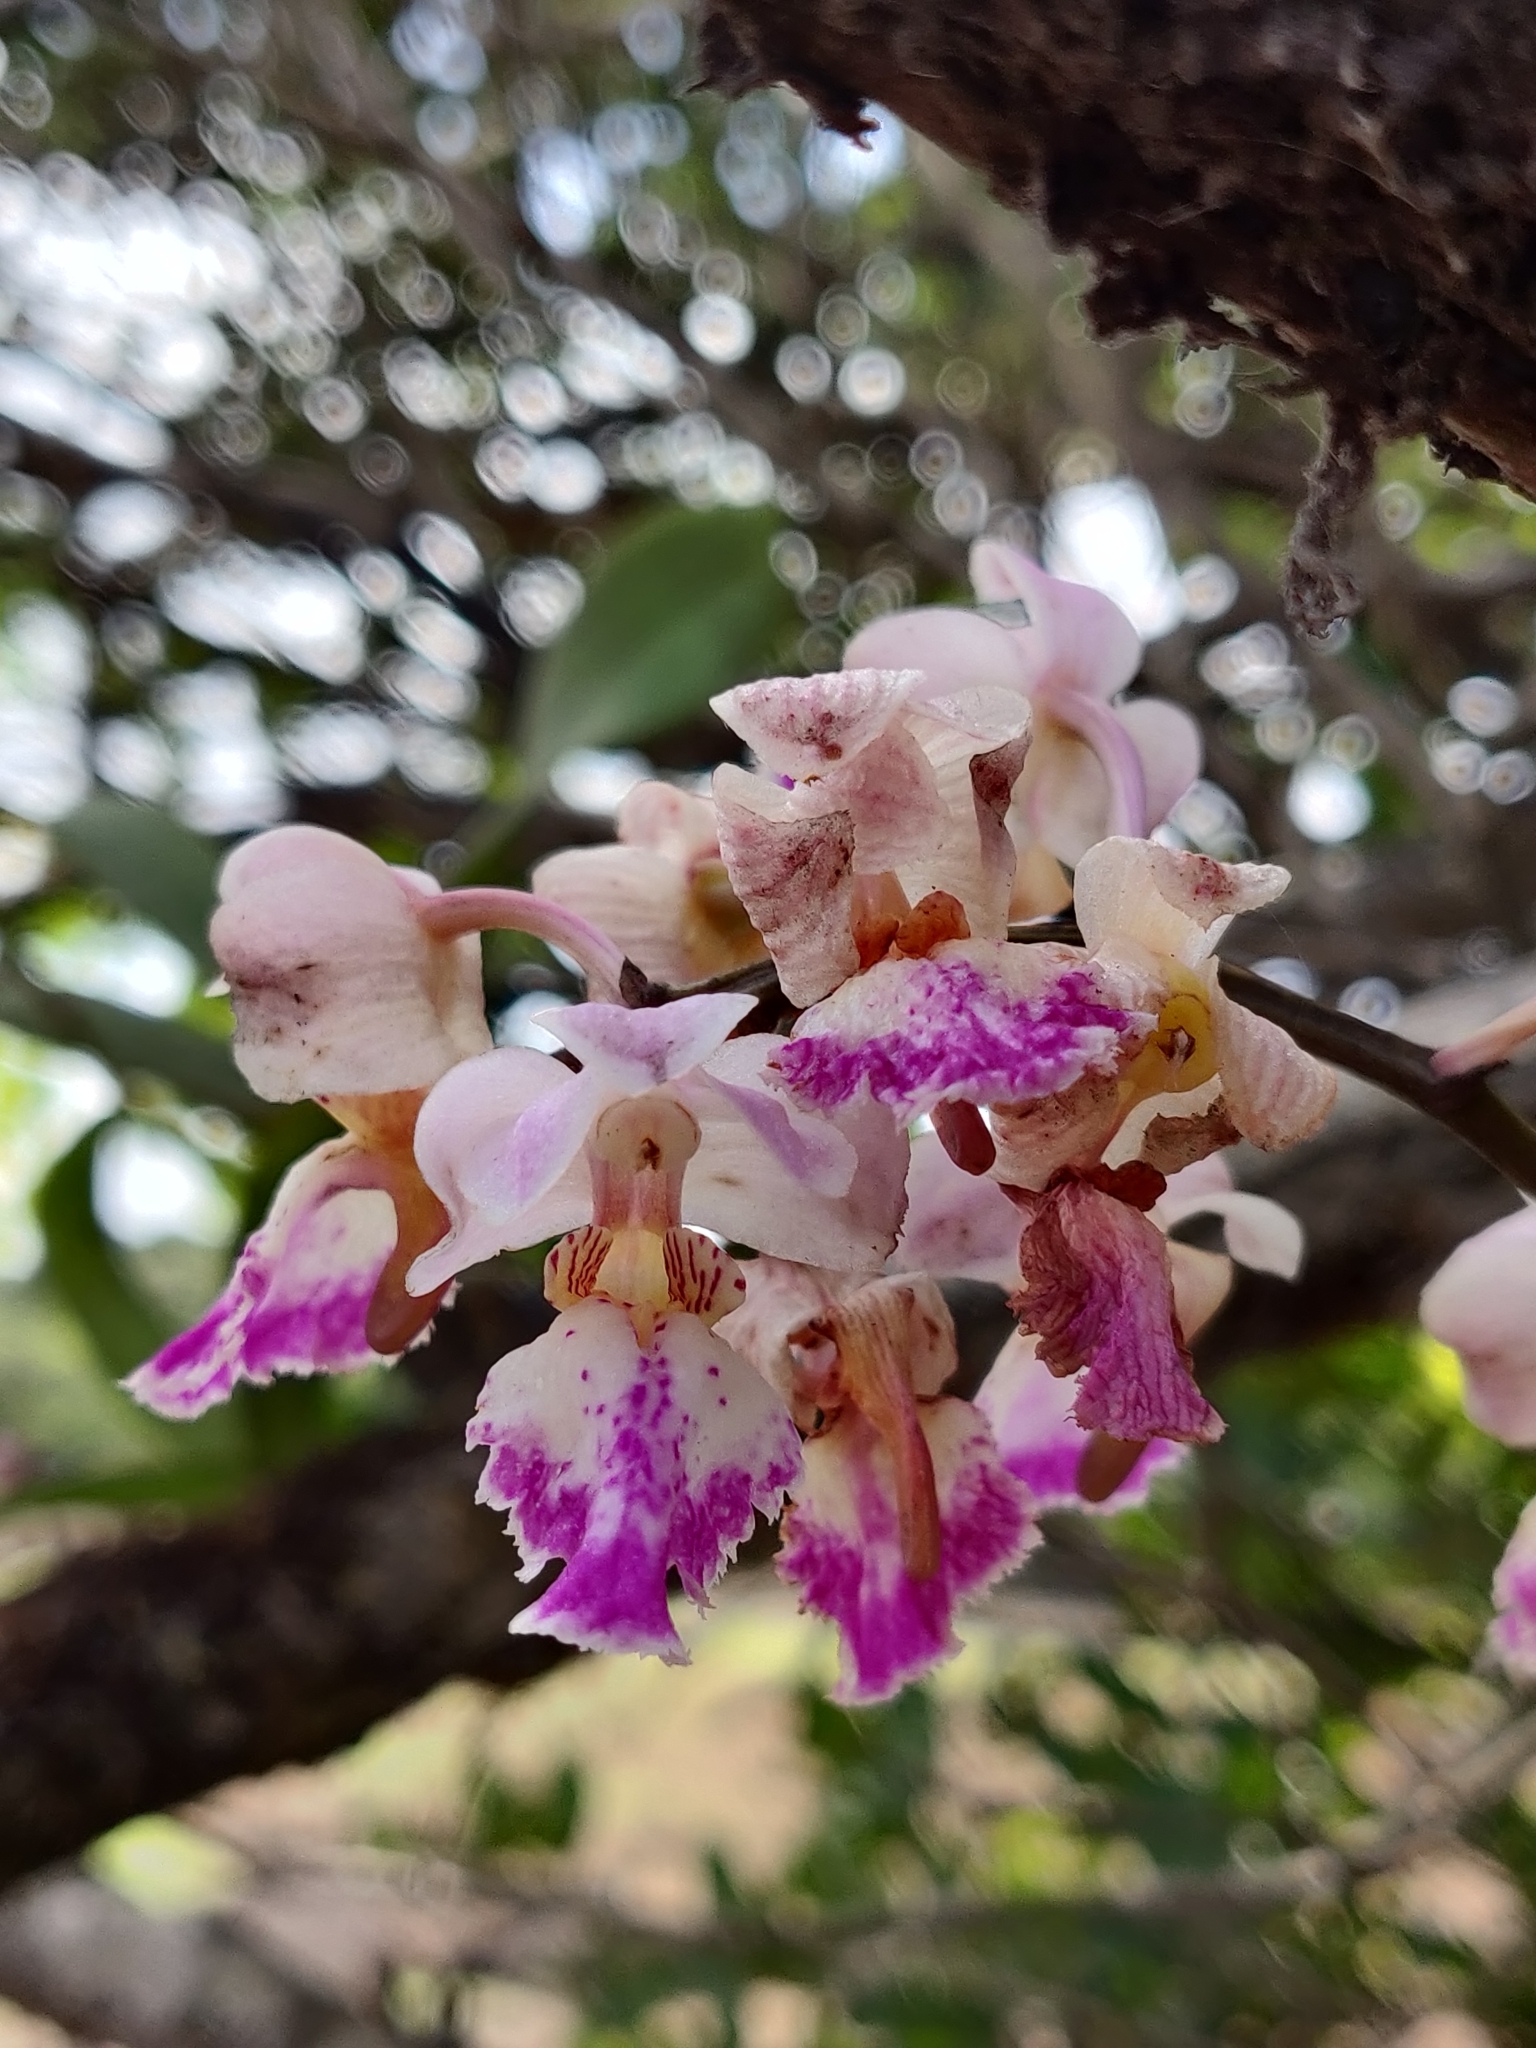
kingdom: Plantae
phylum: Tracheophyta
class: Liliopsida
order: Asparagales
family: Orchidaceae
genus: Aerides
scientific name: Aerides crispa
